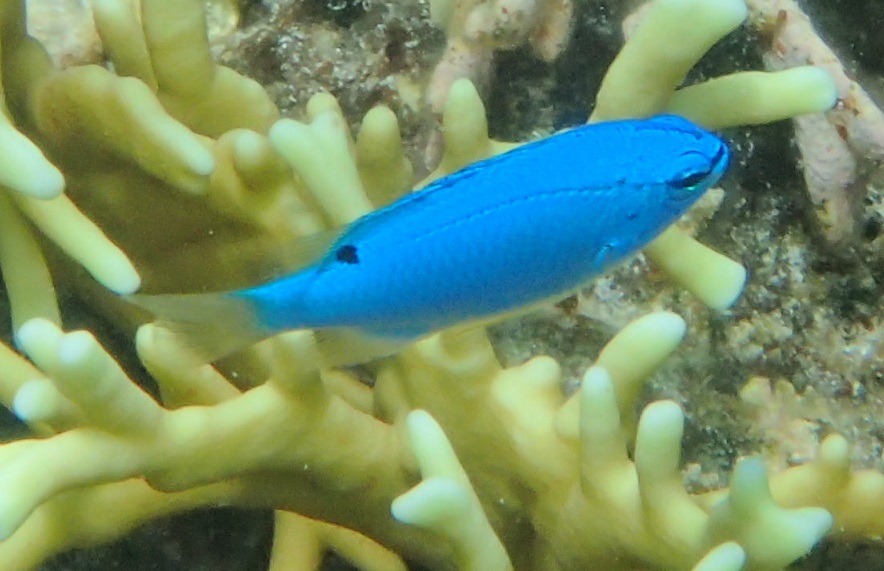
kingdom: Animalia
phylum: Chordata
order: Perciformes
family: Pomacentridae
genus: Chrysiptera
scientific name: Chrysiptera cyanea
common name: Blue devil
